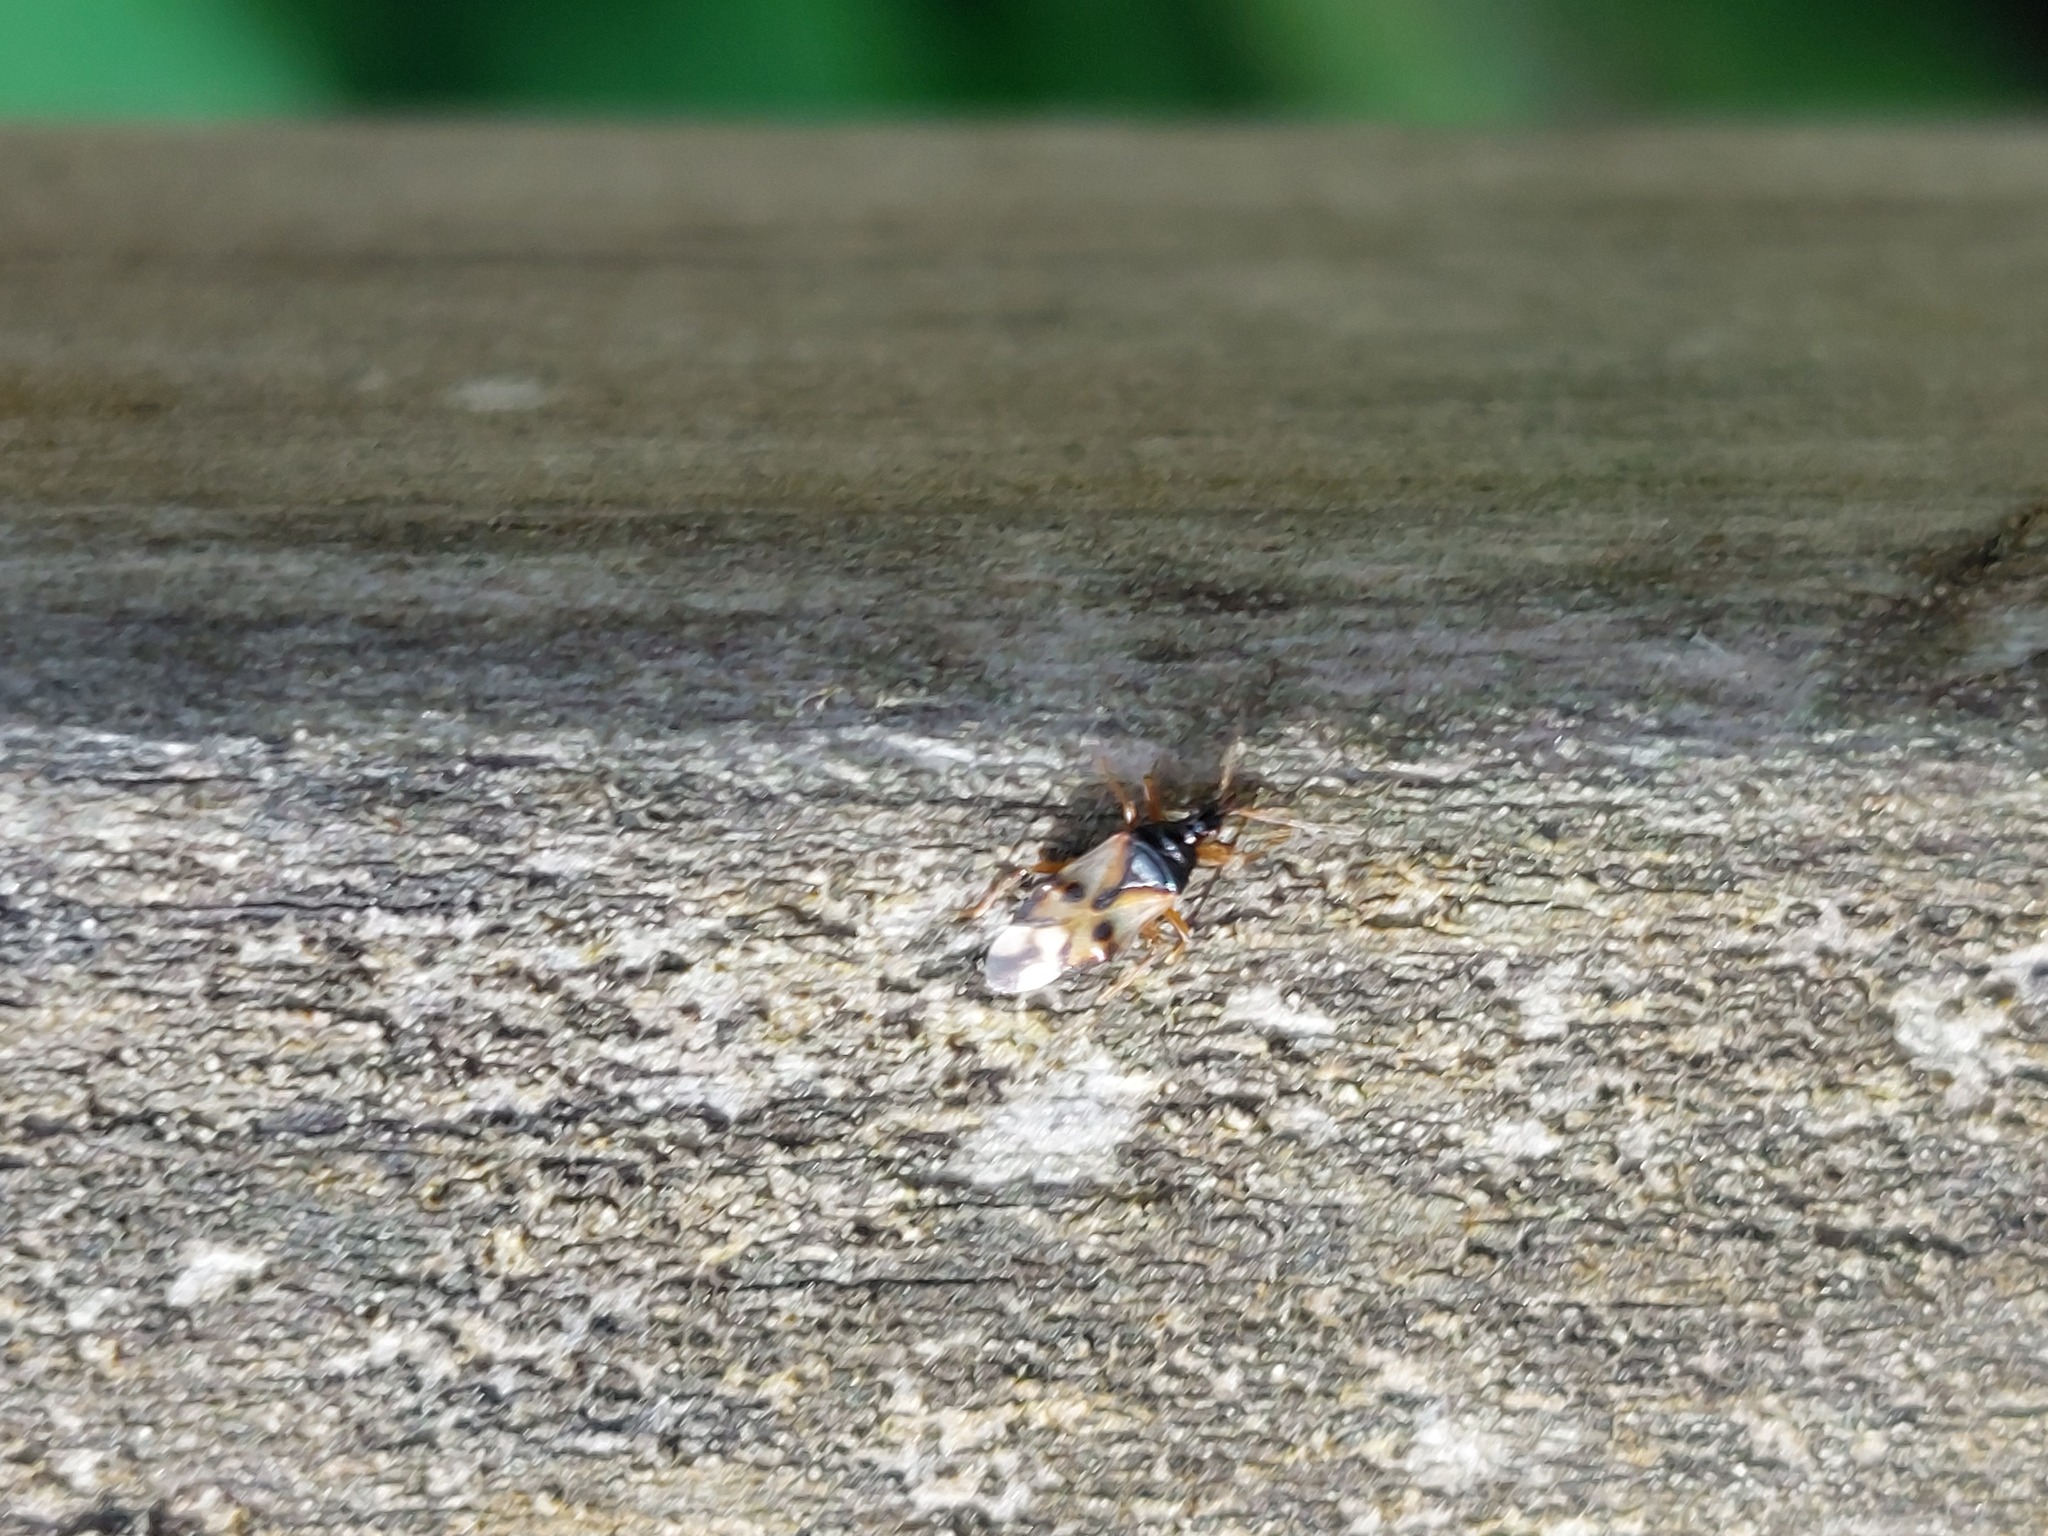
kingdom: Animalia
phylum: Arthropoda
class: Insecta
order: Hemiptera
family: Anthocoridae
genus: Anthocoris
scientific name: Anthocoris nemorum
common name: Minute pirate bug
